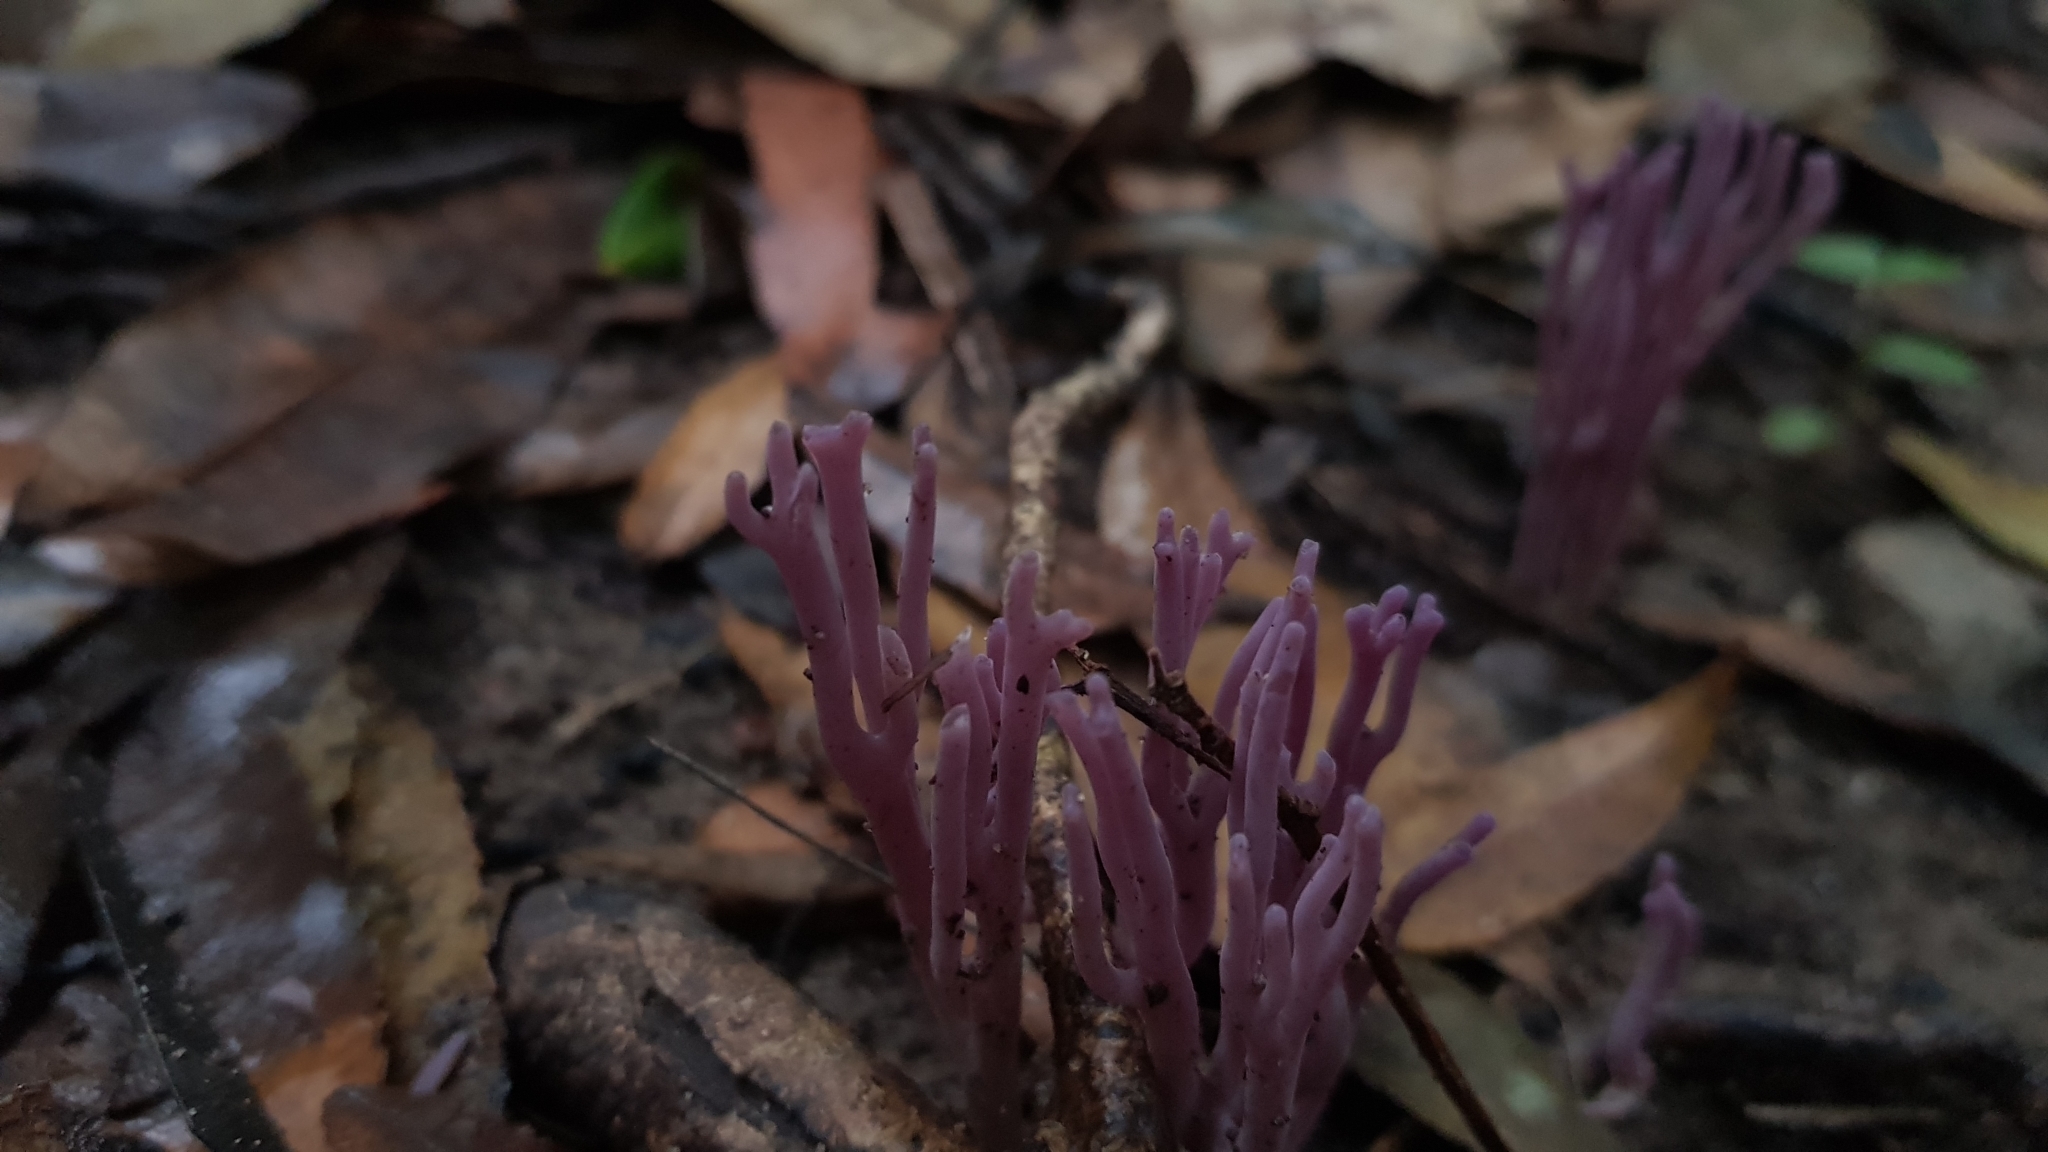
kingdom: Fungi
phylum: Basidiomycota
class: Agaricomycetes
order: Agaricales
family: Clavariaceae
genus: Clavaria
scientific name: Clavaria zollingeri
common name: Violet coral
